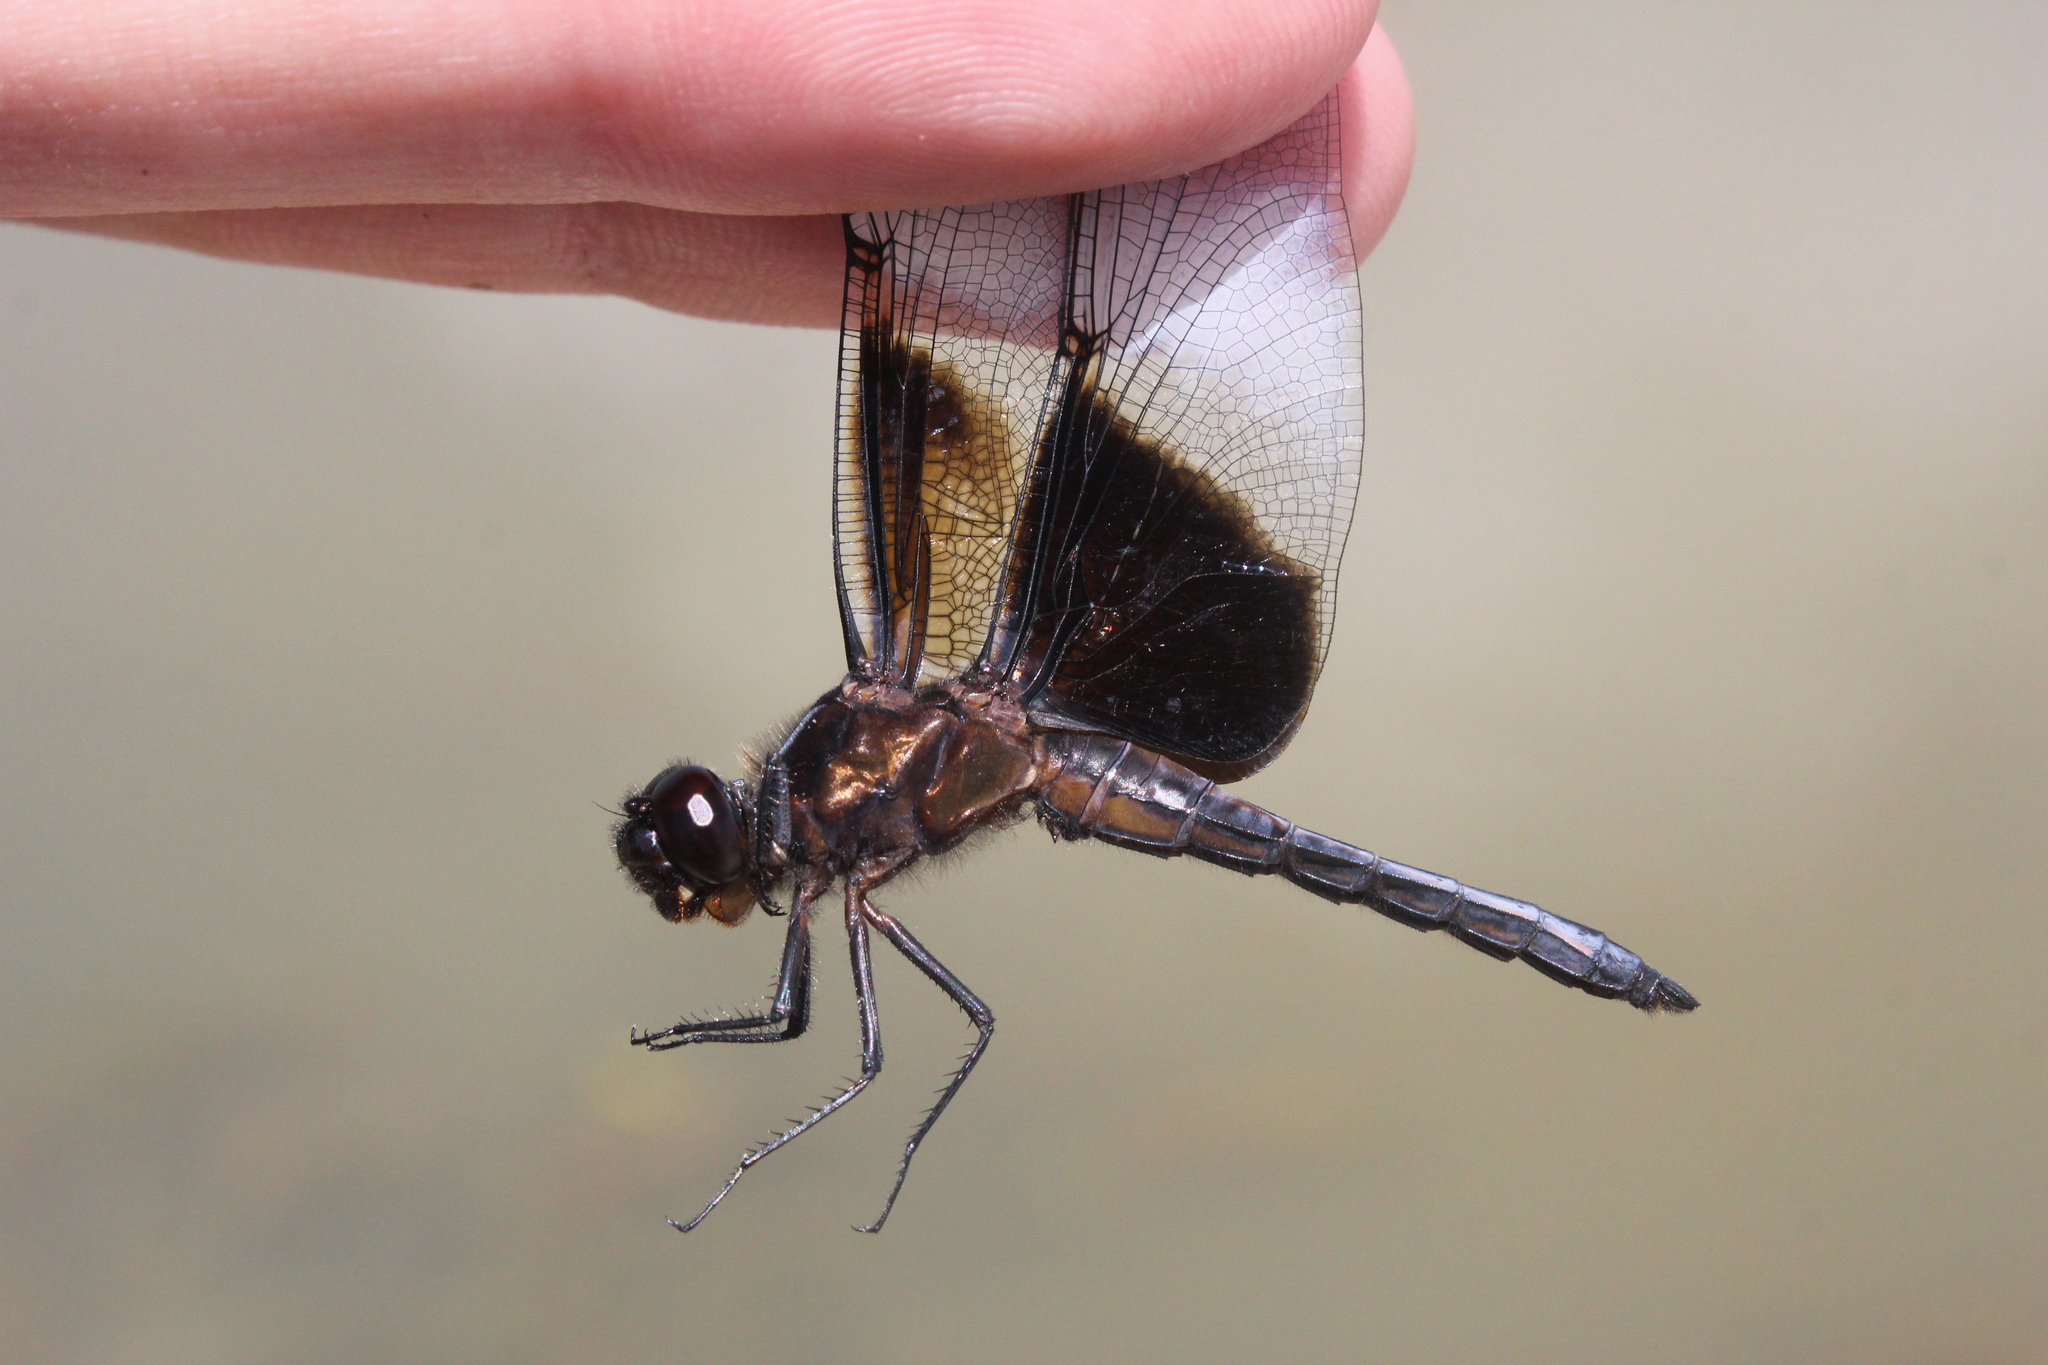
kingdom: Animalia
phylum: Arthropoda
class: Insecta
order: Odonata
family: Libellulidae
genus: Libellula
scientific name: Libellula luctuosa
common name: Widow skimmer
